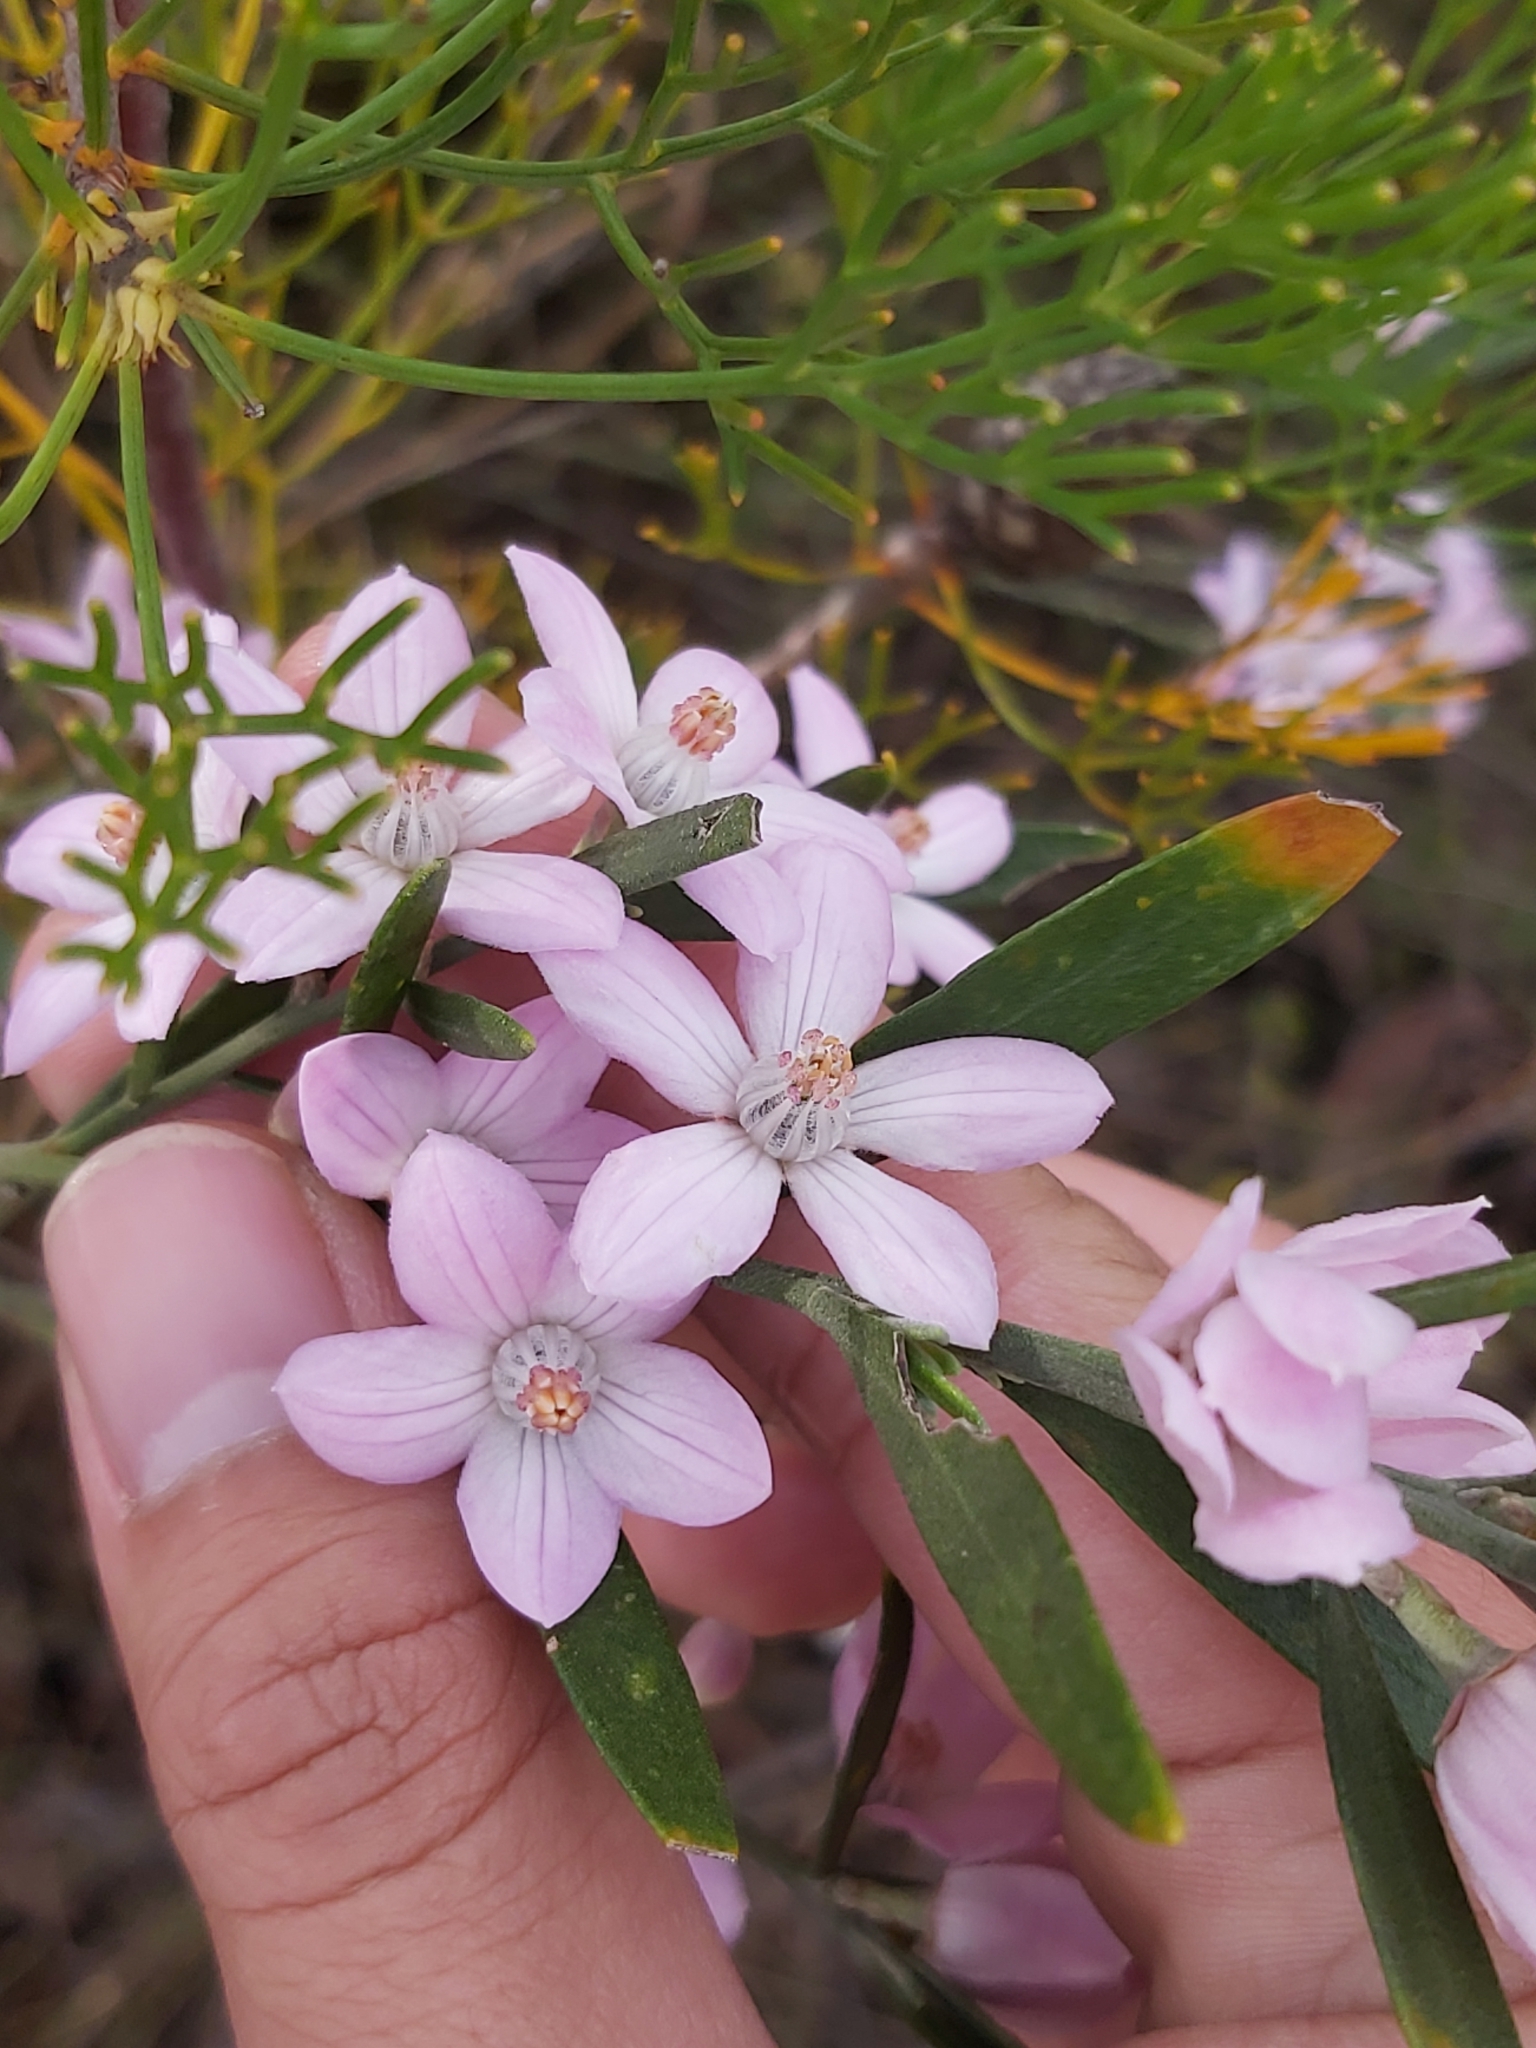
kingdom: Plantae
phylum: Tracheophyta
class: Magnoliopsida
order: Sapindales
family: Rutaceae
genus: Eriostemon
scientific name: Eriostemon australasius
